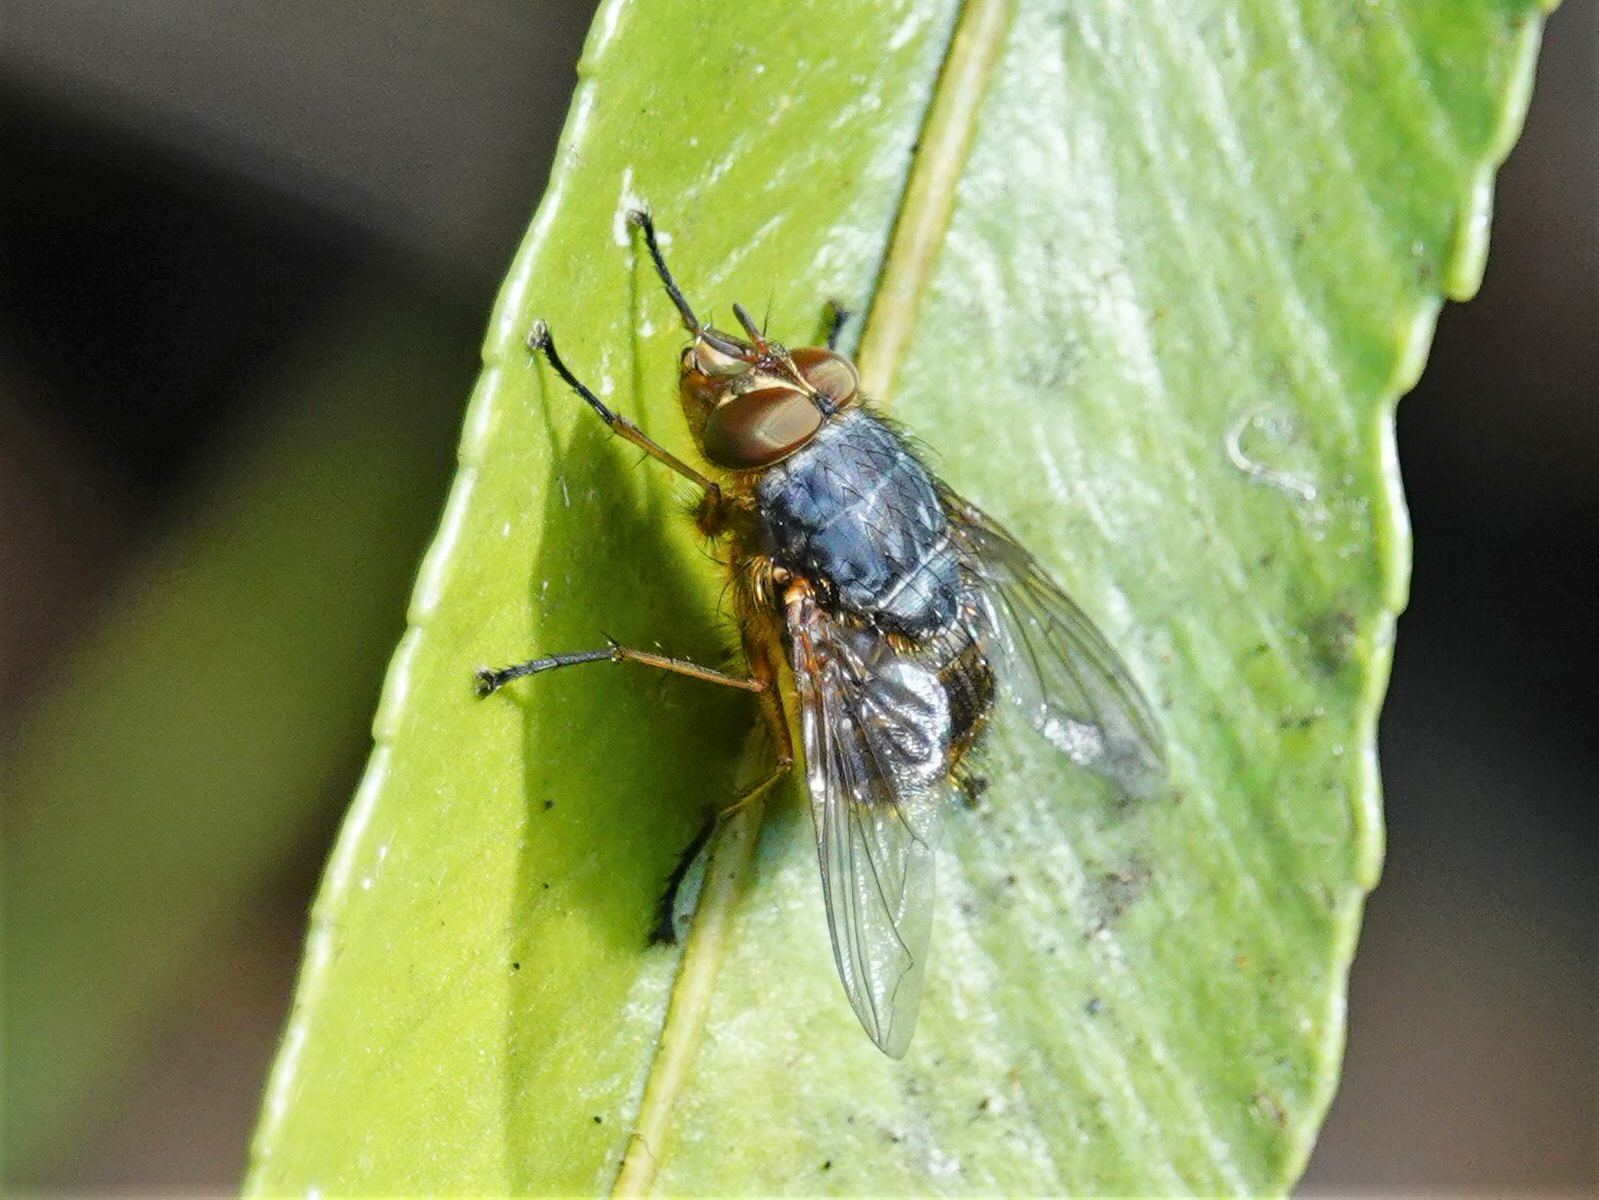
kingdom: Animalia
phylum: Arthropoda
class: Insecta
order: Diptera
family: Calliphoridae
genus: Calliphora
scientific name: Calliphora hilli
